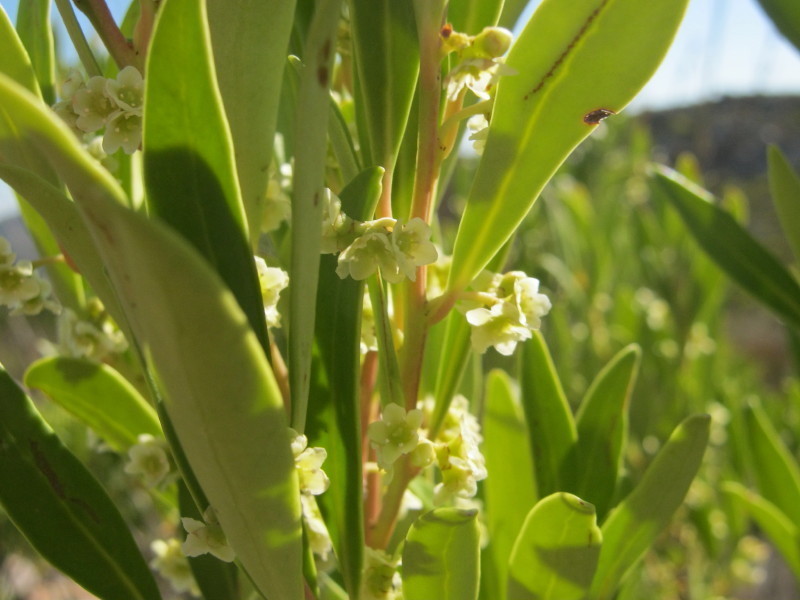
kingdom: Plantae
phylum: Tracheophyta
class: Magnoliopsida
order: Celastrales
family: Celastraceae
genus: Pterocelastrus
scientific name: Pterocelastrus tricuspidatus
